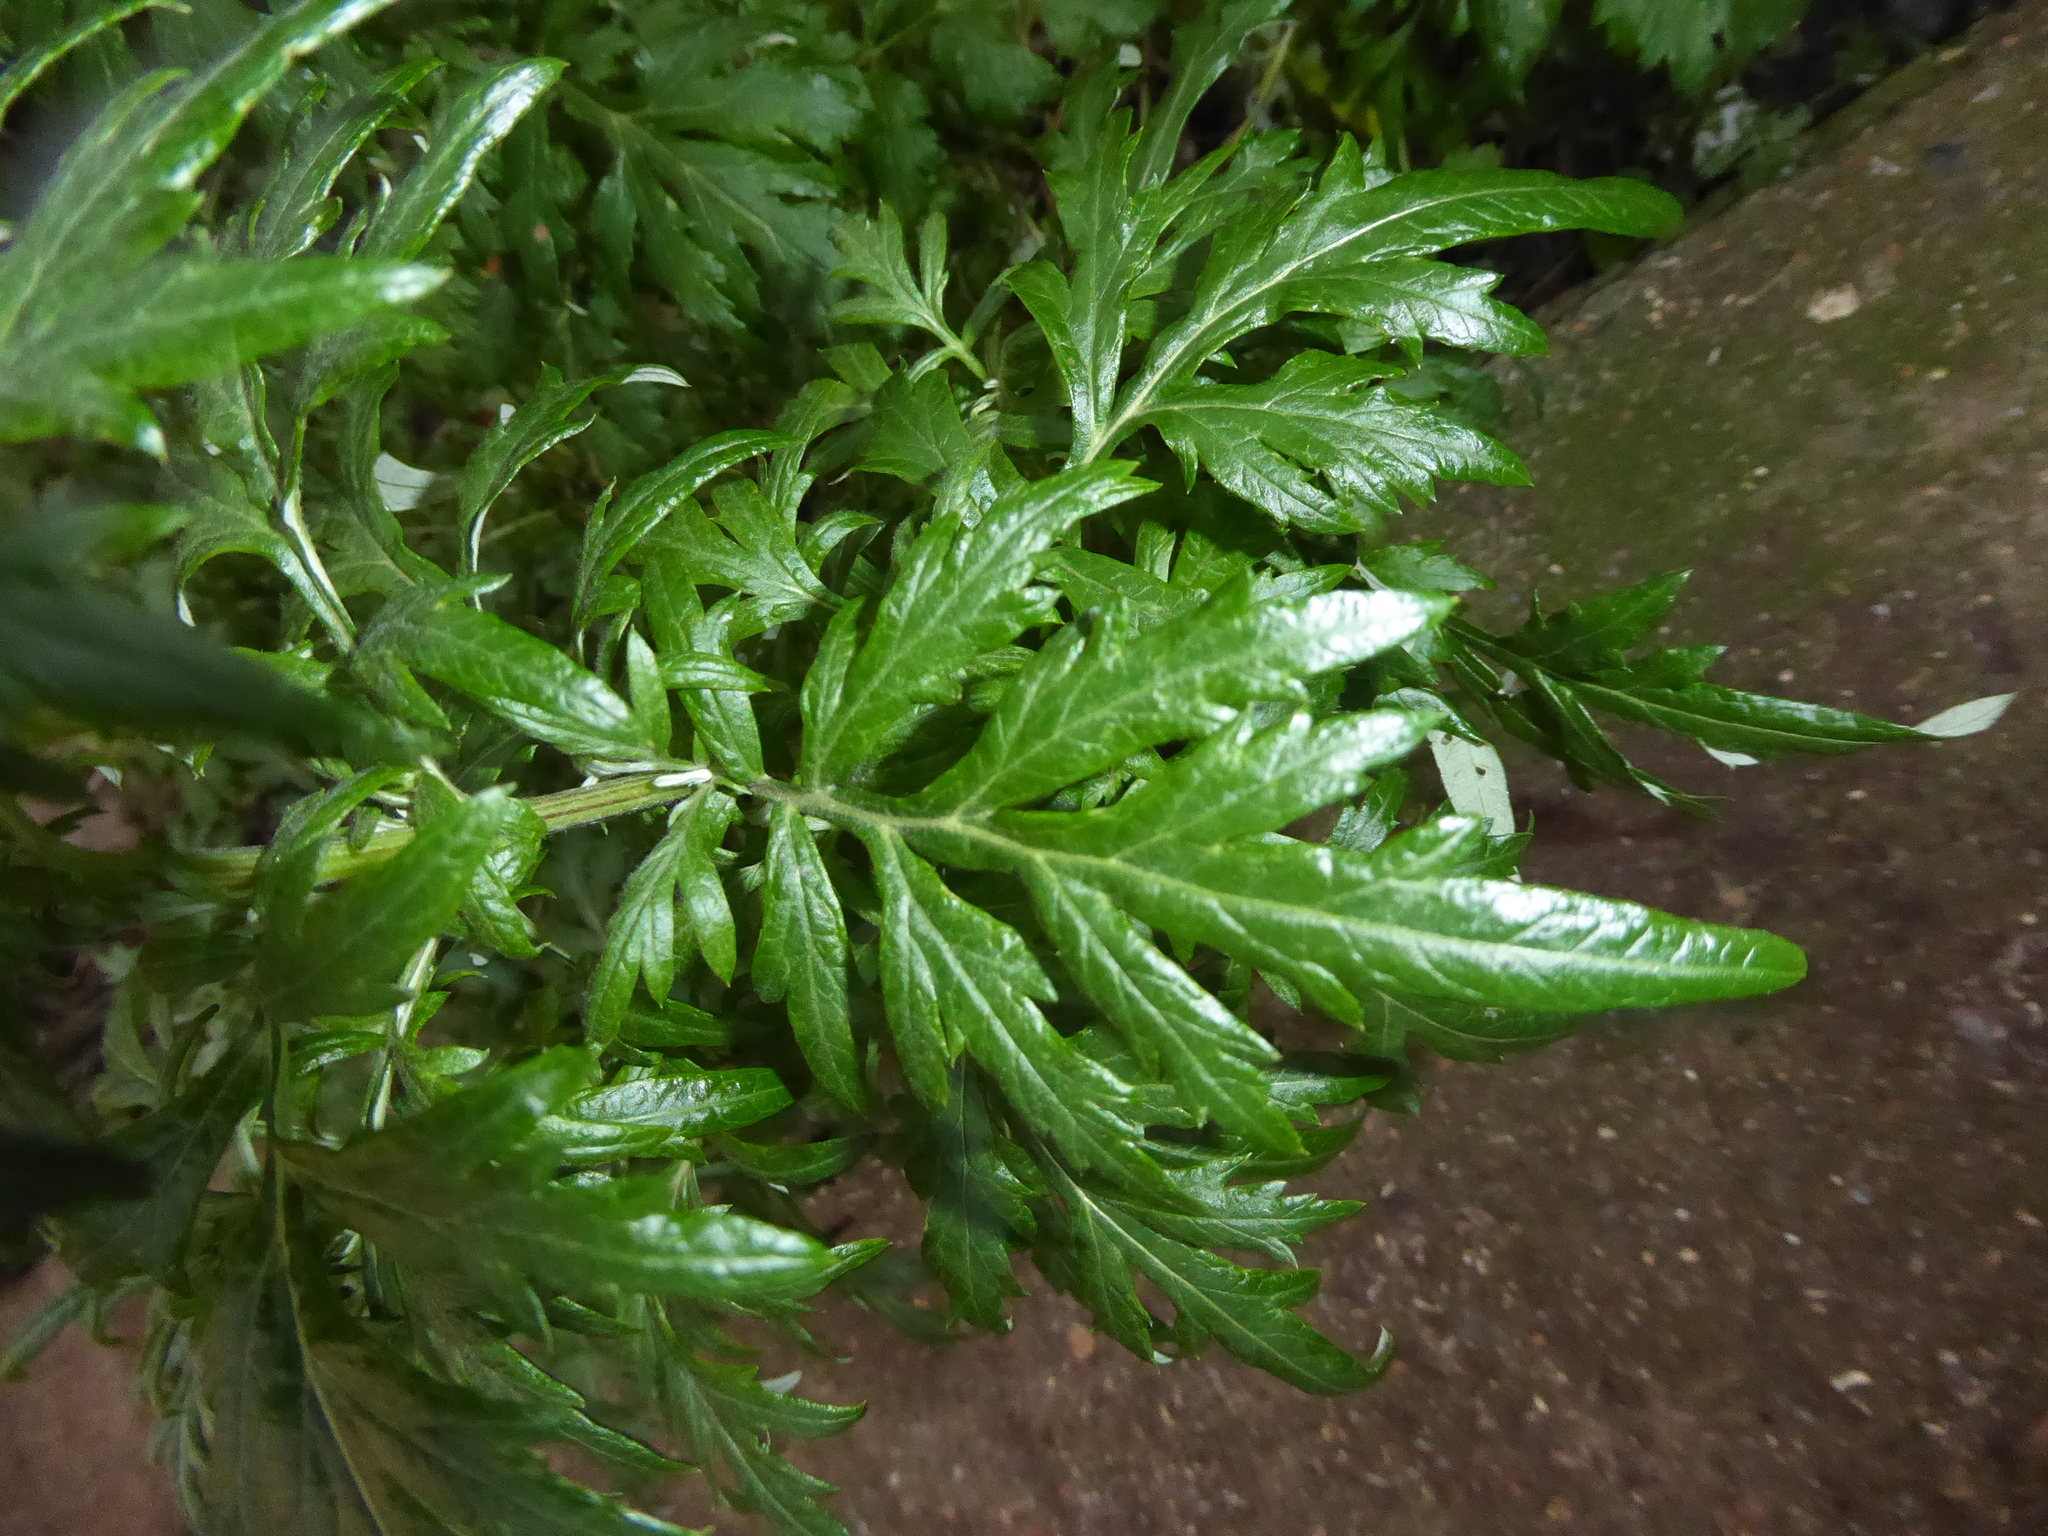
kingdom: Plantae
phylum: Tracheophyta
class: Magnoliopsida
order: Asterales
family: Asteraceae
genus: Artemisia
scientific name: Artemisia vulgaris
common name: Mugwort
